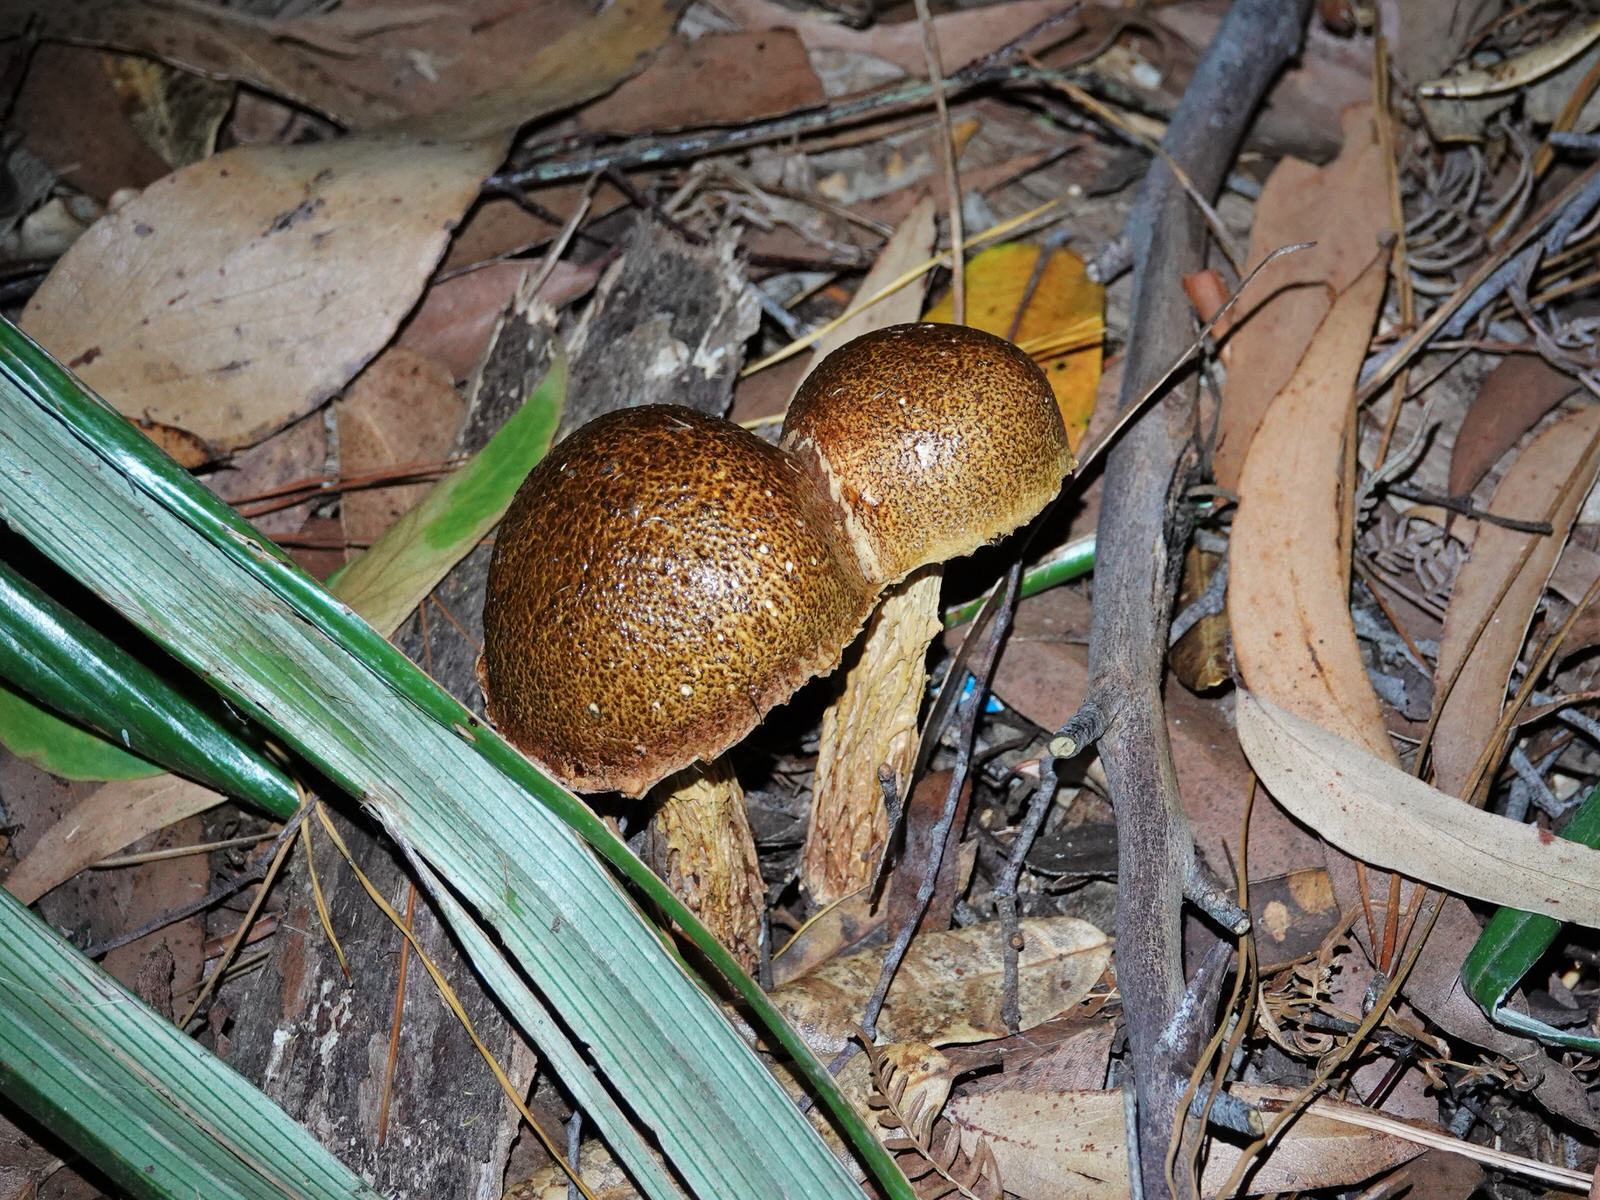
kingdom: Fungi
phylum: Basidiomycota
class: Agaricomycetes
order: Boletales
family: Boletaceae
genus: Austroboletus
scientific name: Austroboletus lacunosus
